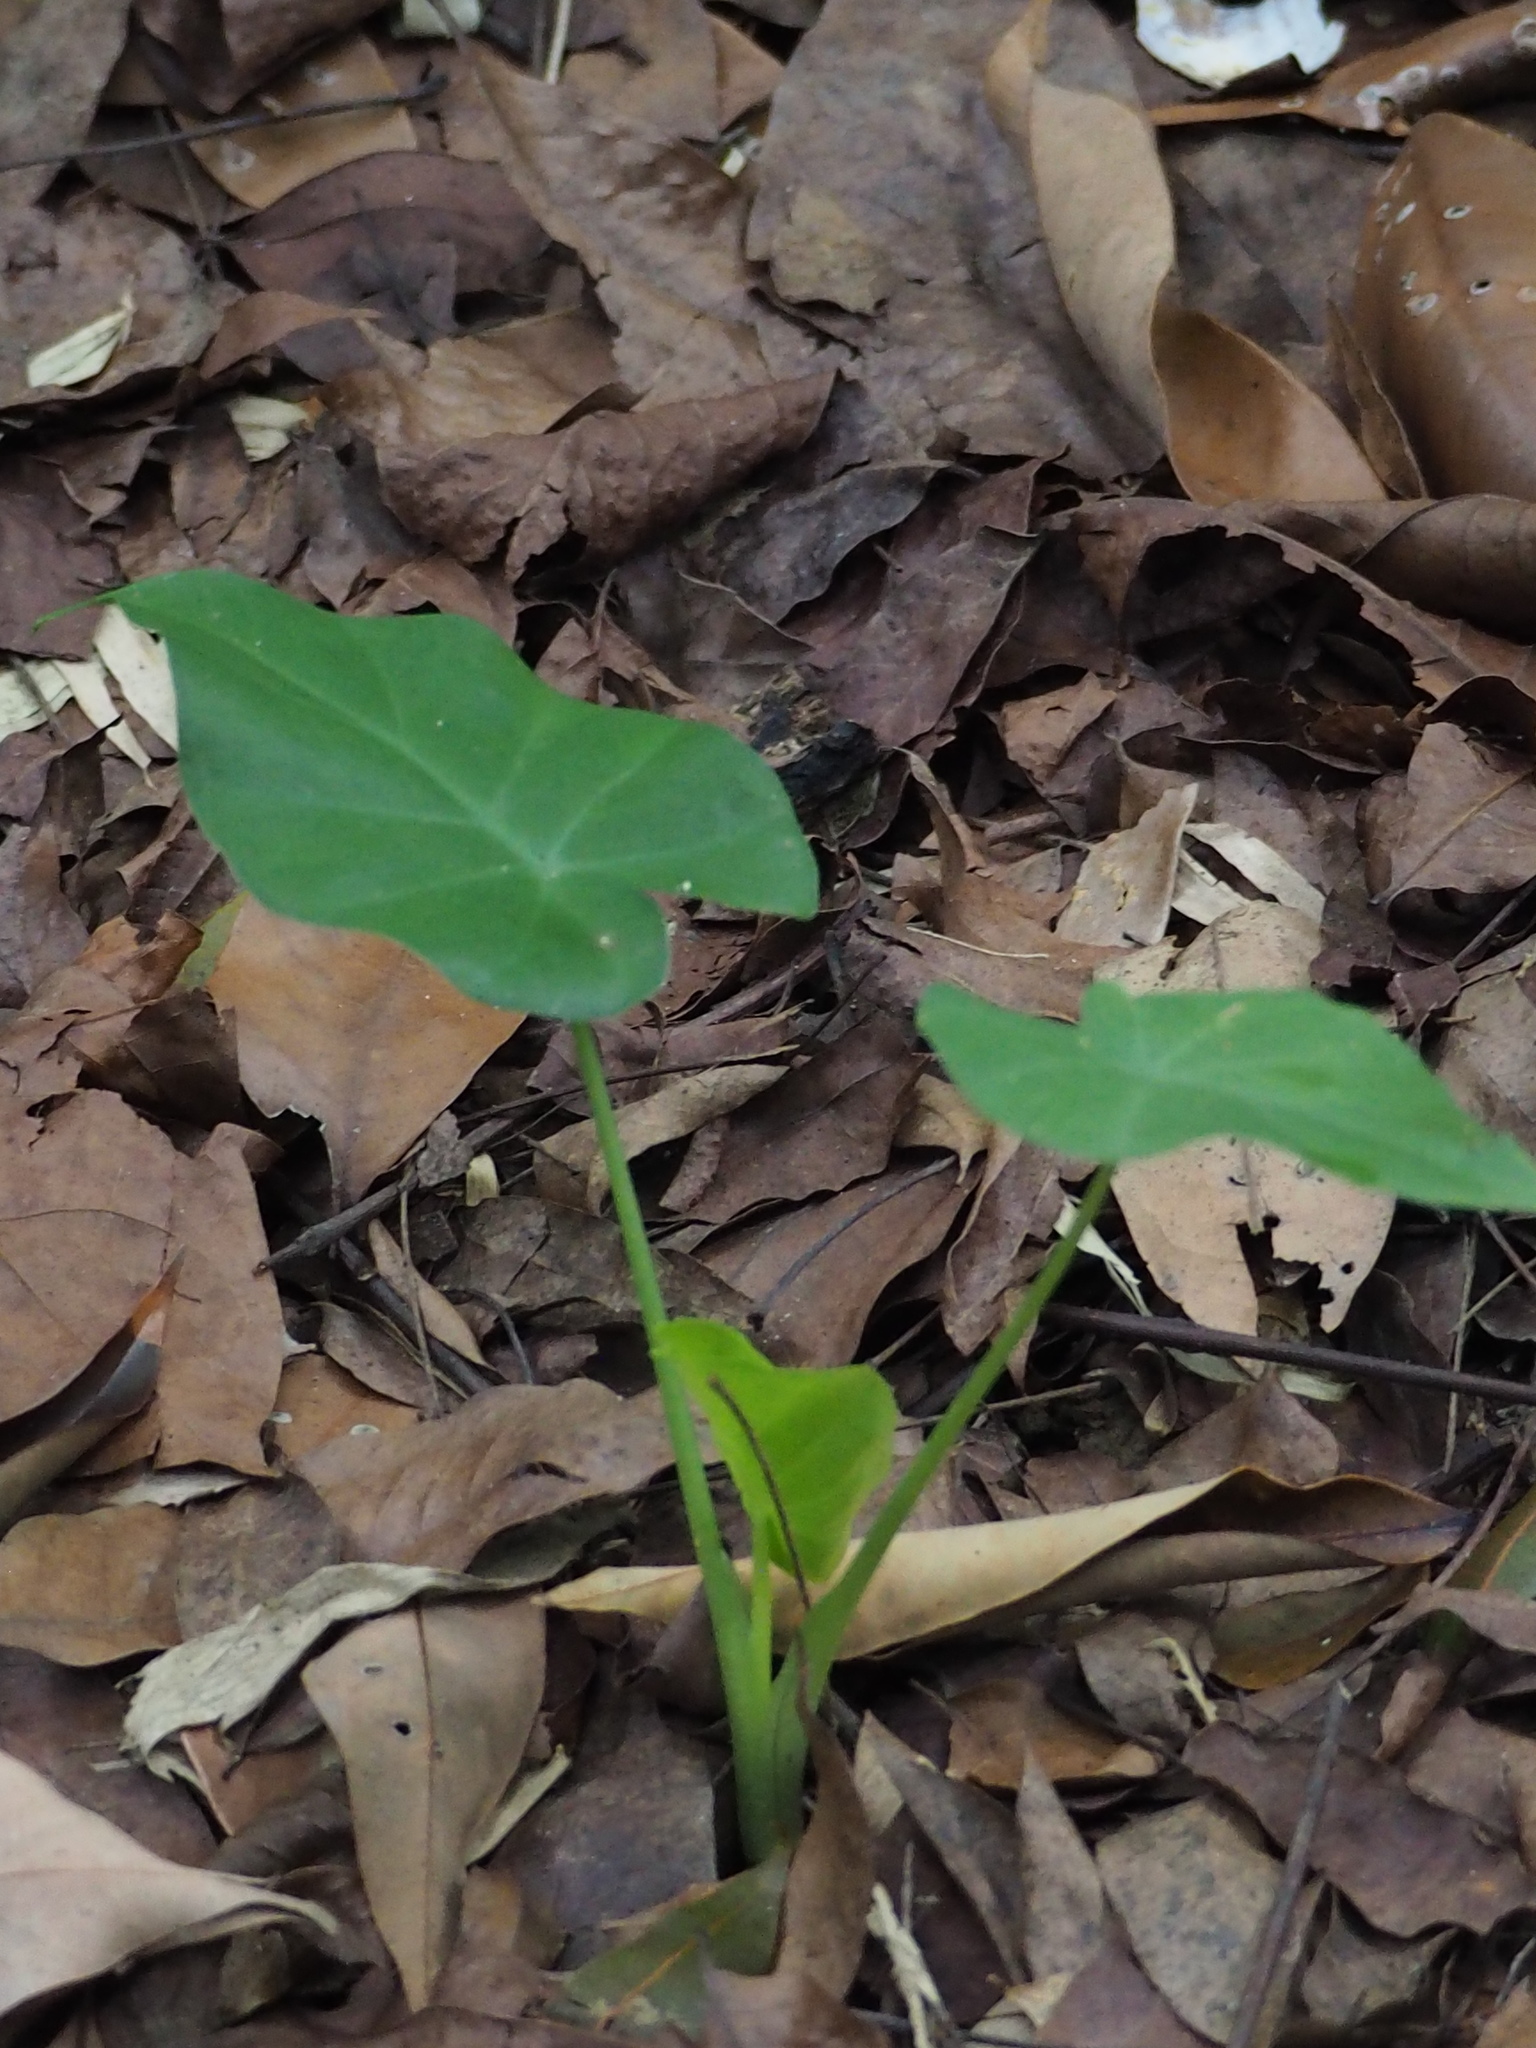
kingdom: Plantae
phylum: Tracheophyta
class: Liliopsida
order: Alismatales
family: Araceae
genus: Alocasia
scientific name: Alocasia odora
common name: Asian taro
